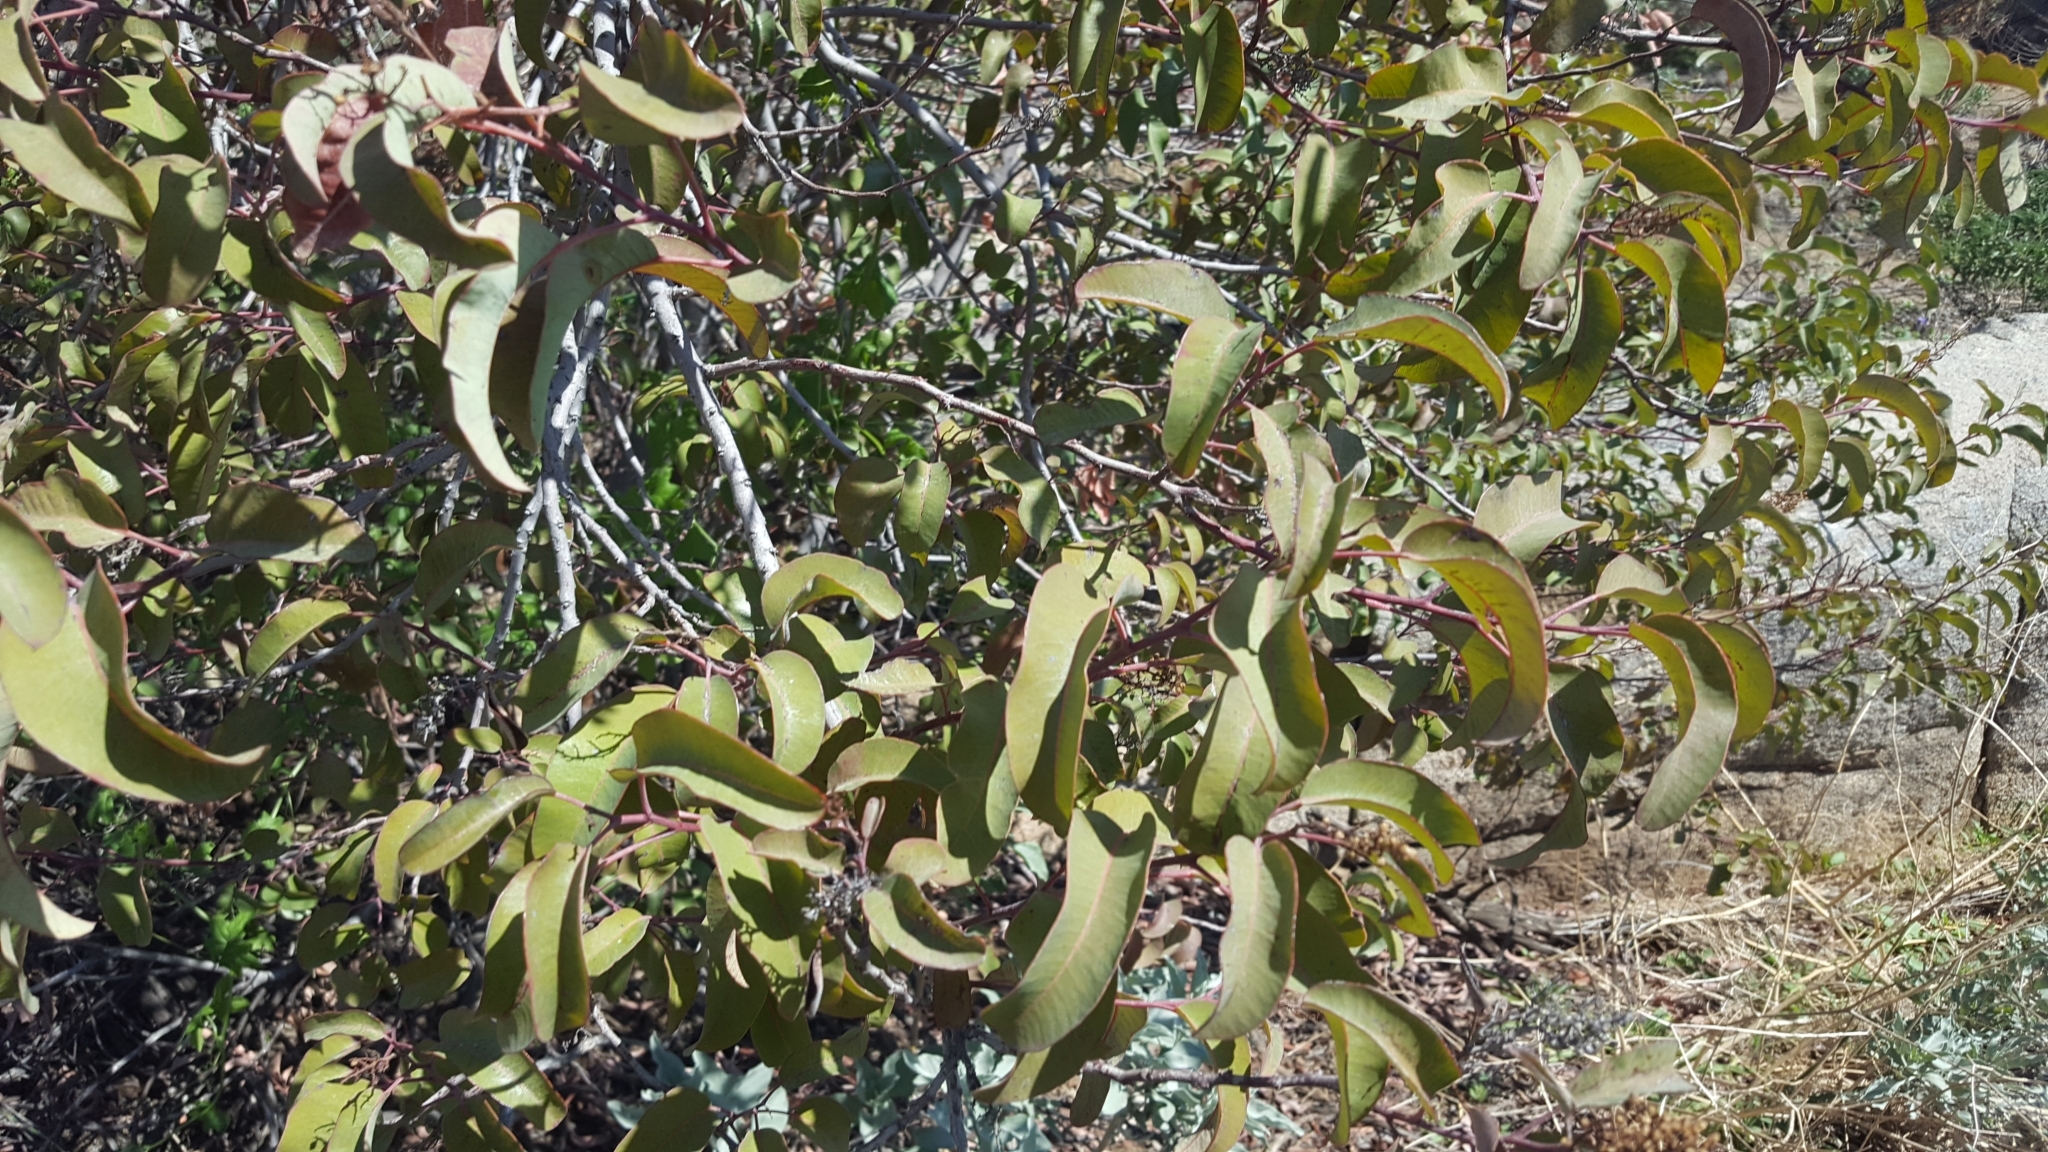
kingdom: Plantae
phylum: Tracheophyta
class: Magnoliopsida
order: Sapindales
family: Anacardiaceae
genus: Malosma
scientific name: Malosma laurina
